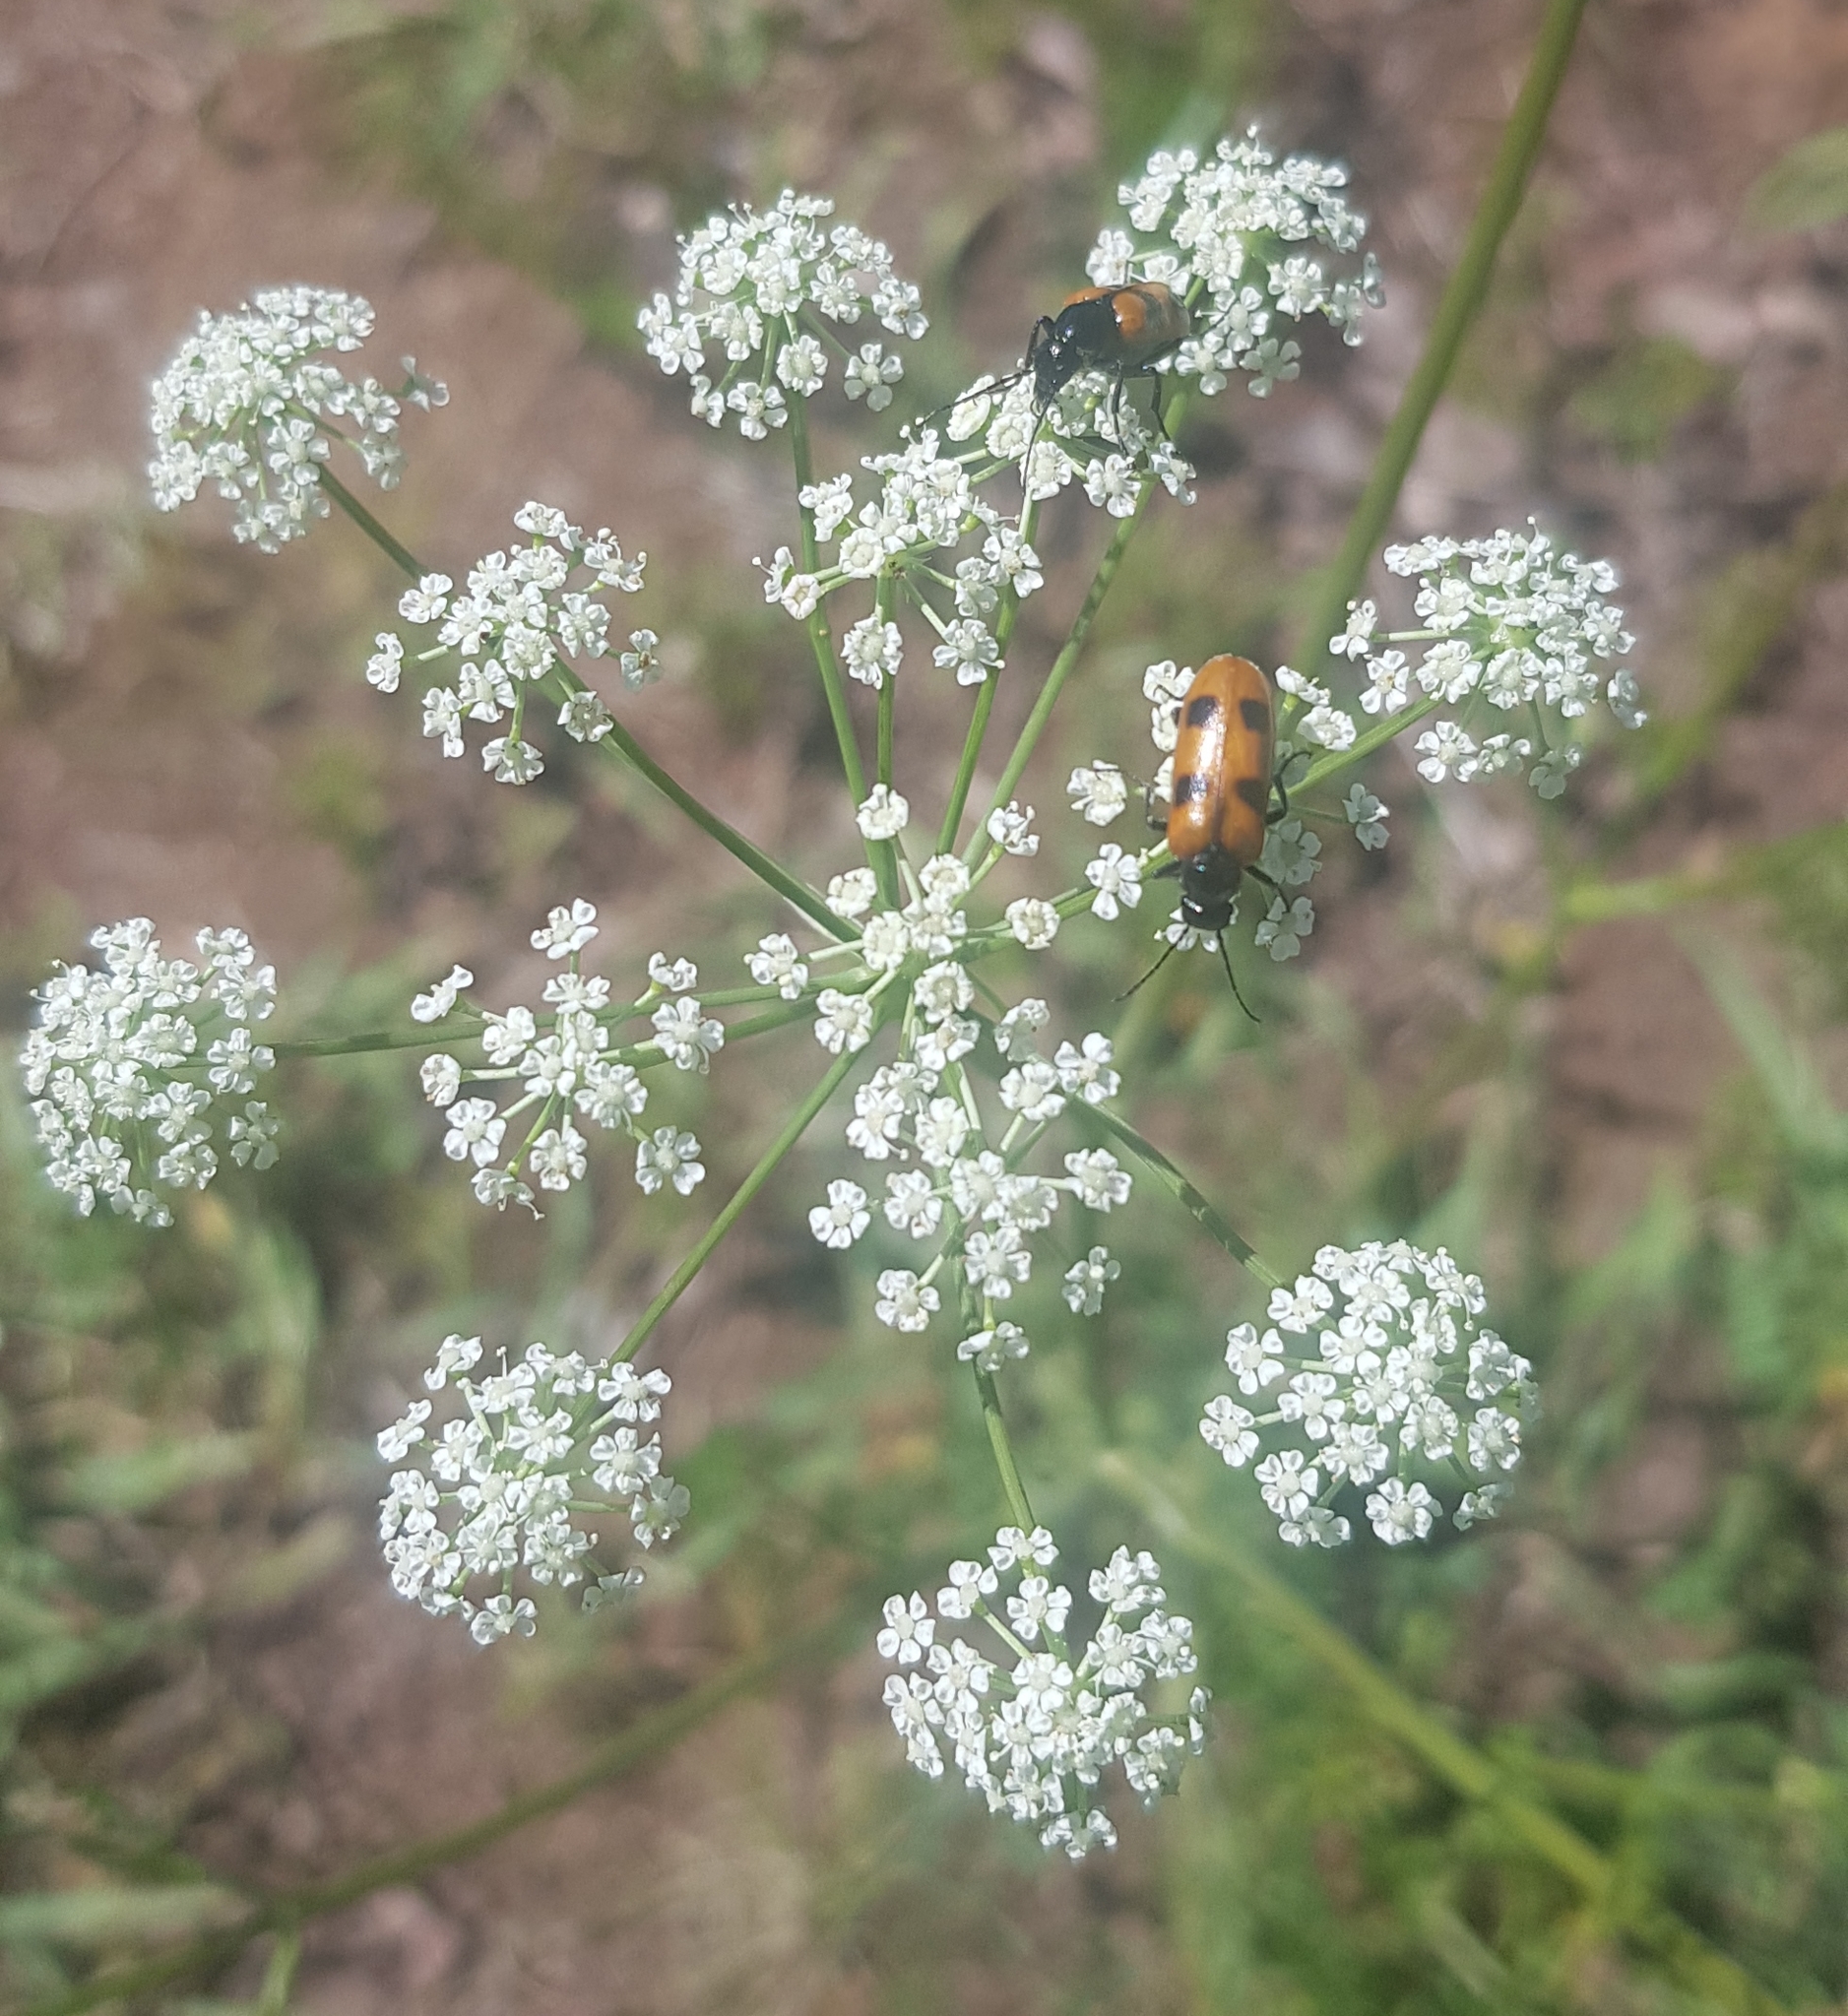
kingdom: Plantae
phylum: Tracheophyta
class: Magnoliopsida
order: Apiales
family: Apiaceae
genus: Sphallerocarpus
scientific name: Sphallerocarpus gracilis
